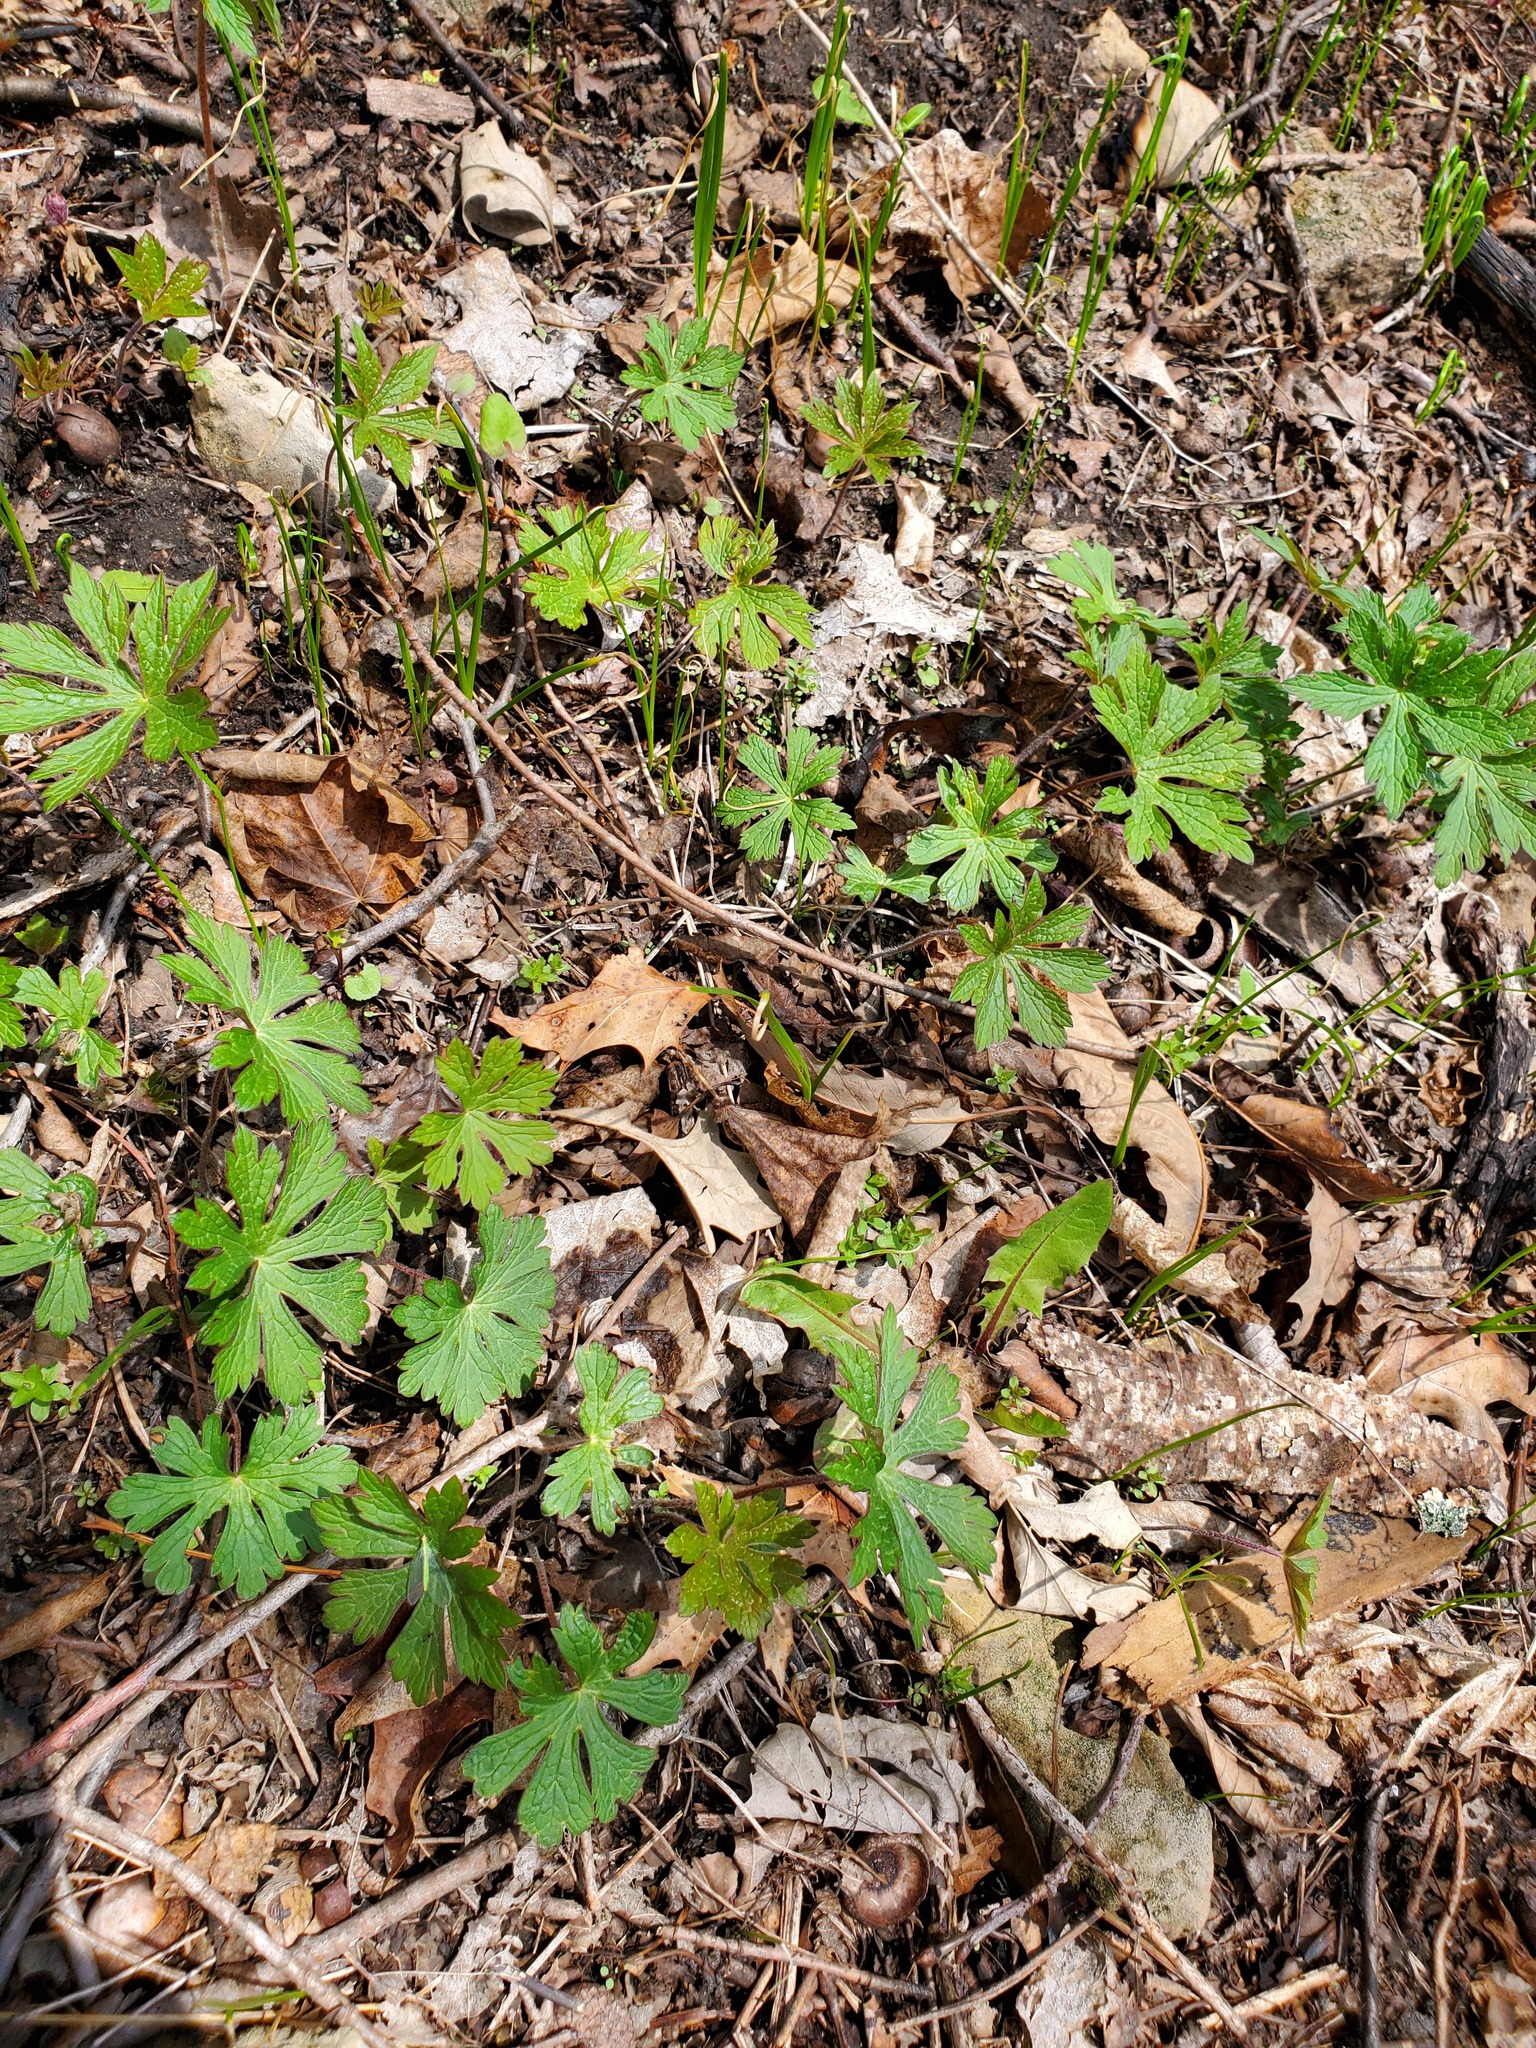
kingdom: Plantae
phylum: Tracheophyta
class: Magnoliopsida
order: Geraniales
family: Geraniaceae
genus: Geranium
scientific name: Geranium maculatum
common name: Spotted geranium
